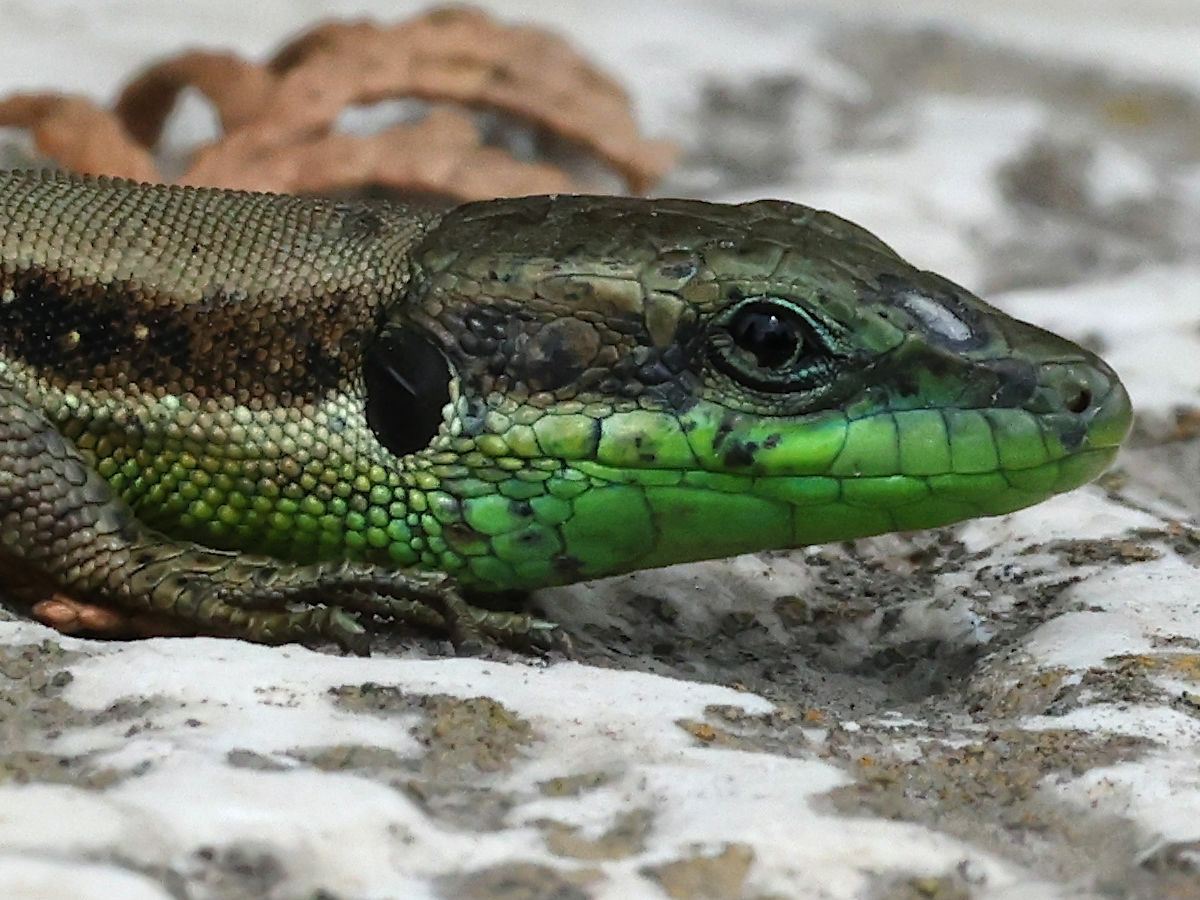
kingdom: Animalia
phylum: Chordata
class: Squamata
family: Lacertidae
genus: Phoenicolacerta
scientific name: Phoenicolacerta laevis
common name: Lebanon lizard
